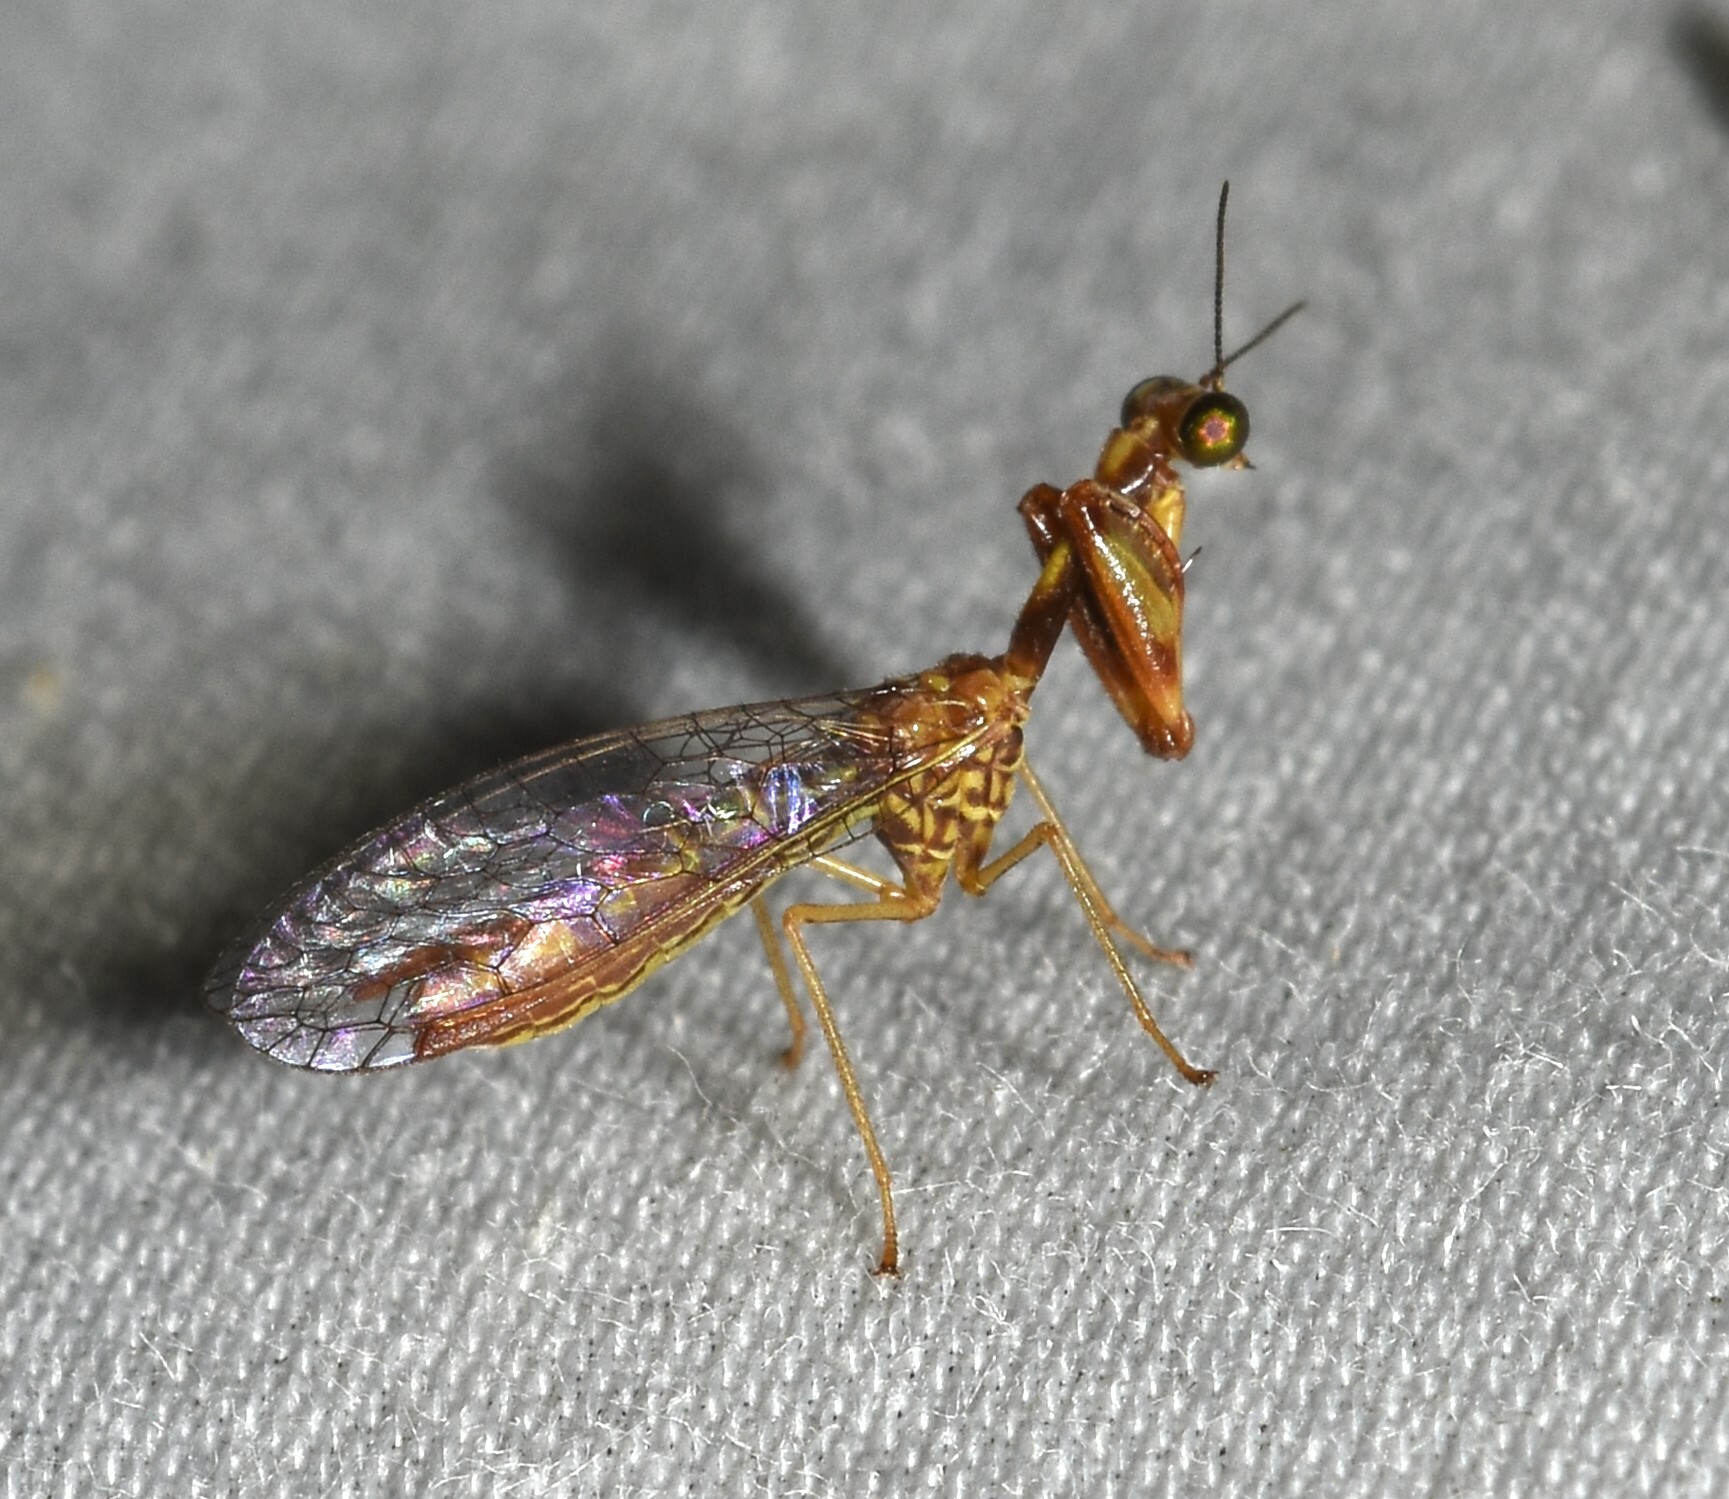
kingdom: Animalia
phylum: Arthropoda
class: Insecta
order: Neuroptera
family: Mantispidae
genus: Leptomantispa
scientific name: Leptomantispa pulchella
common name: Stevens's mantidfly
